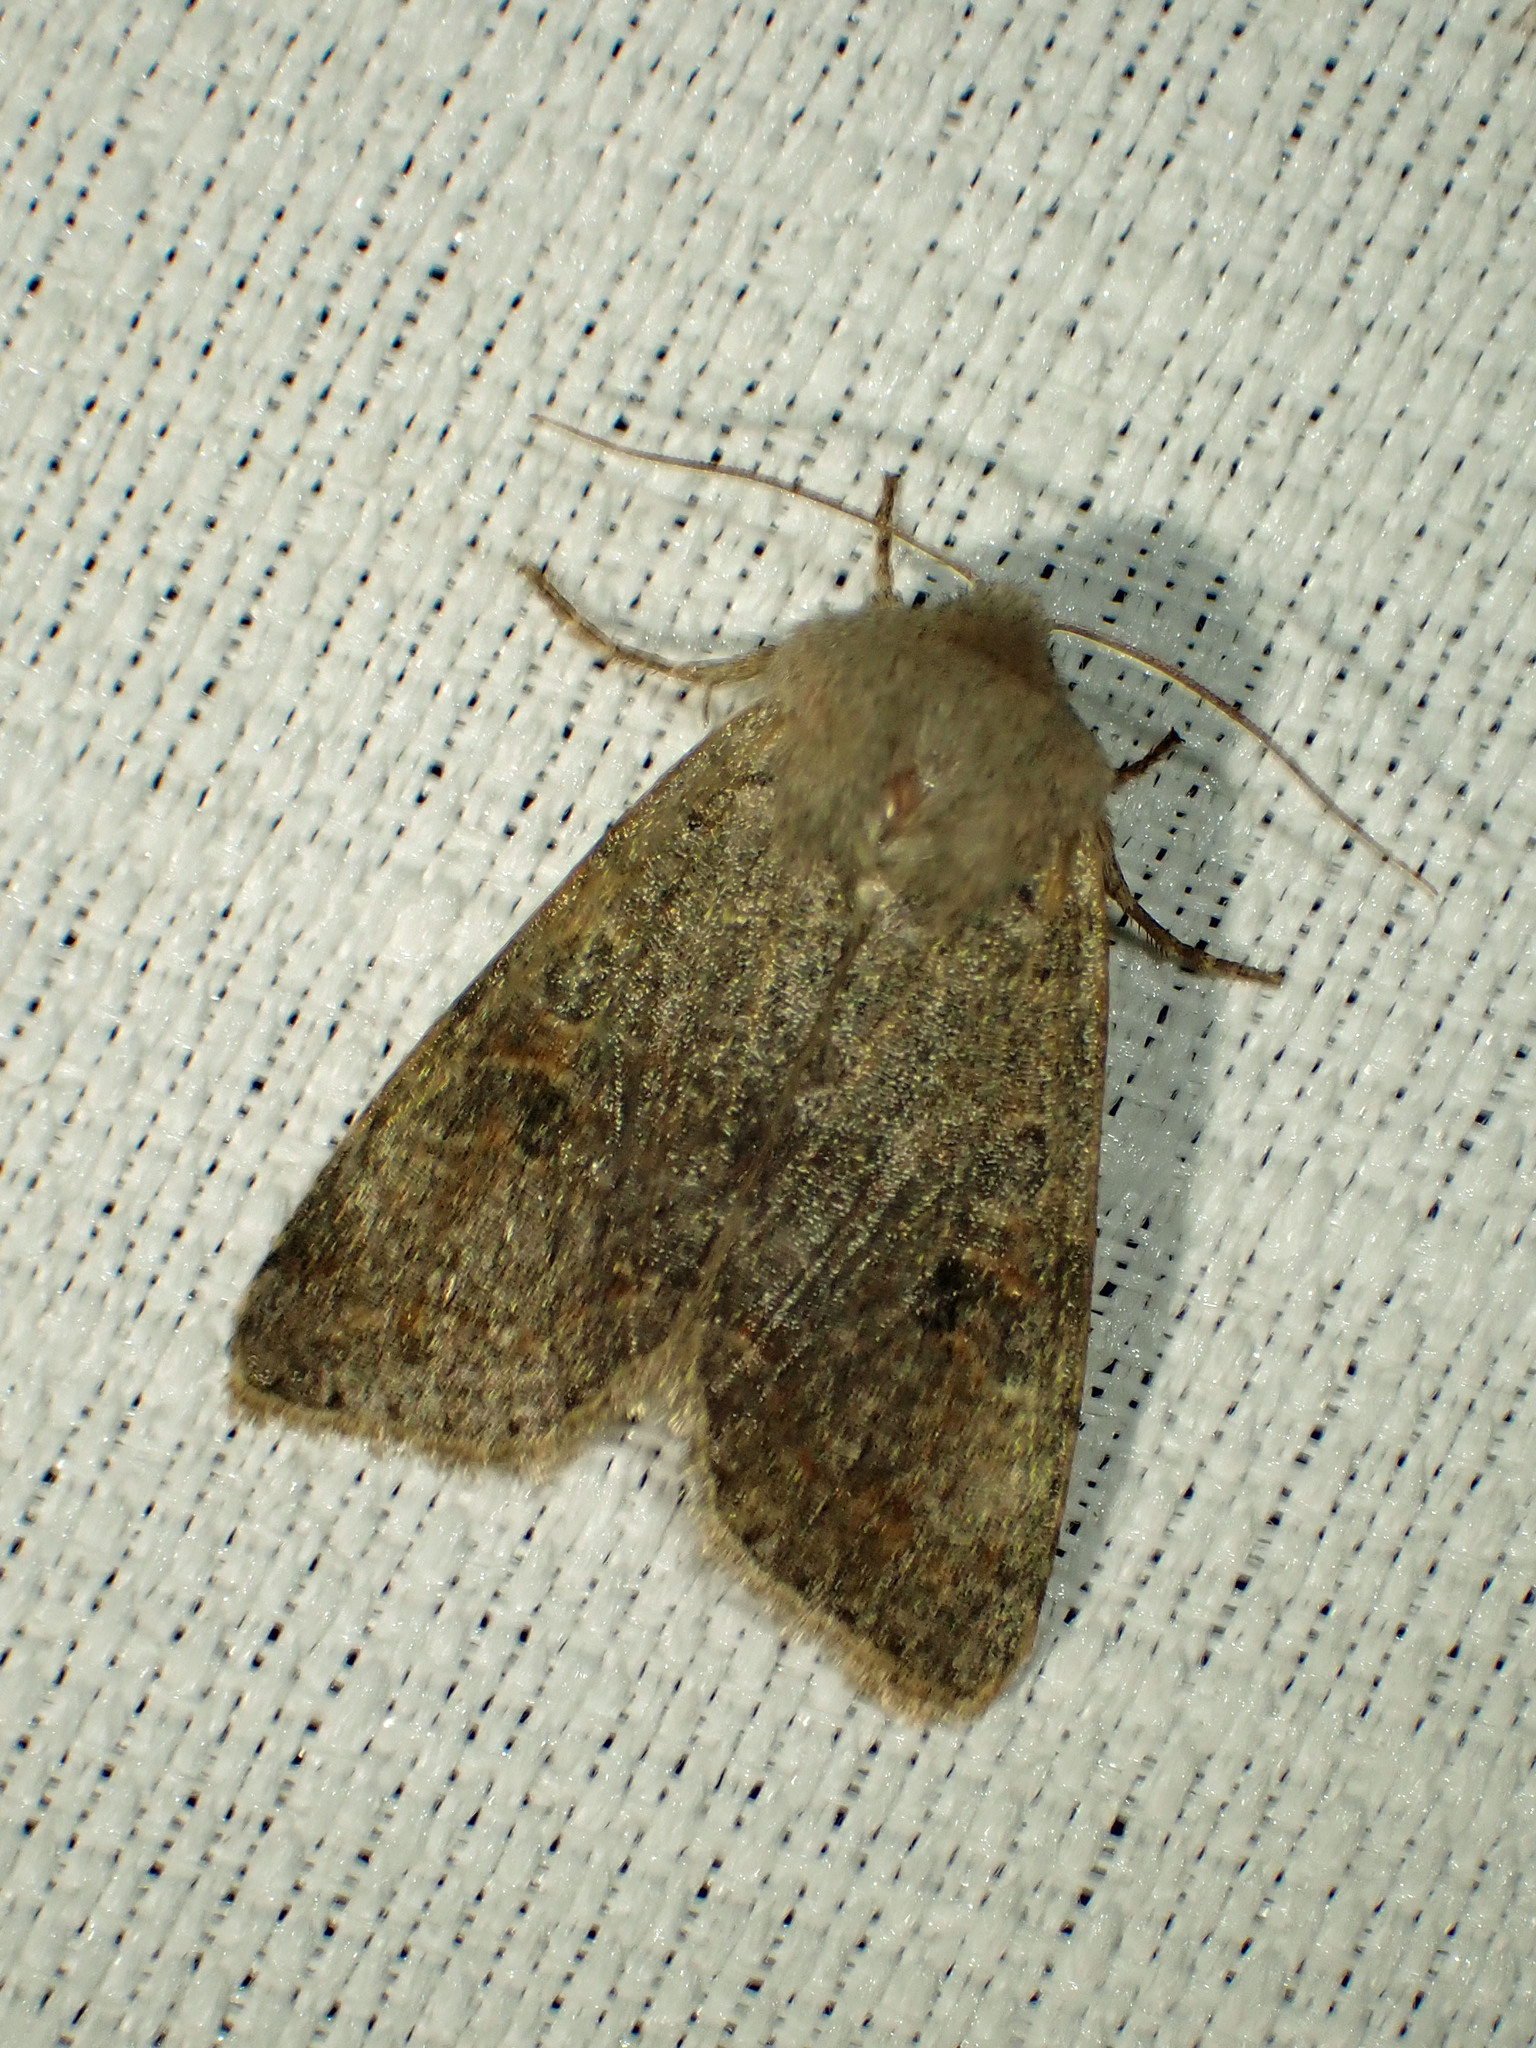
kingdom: Animalia
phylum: Arthropoda
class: Insecta
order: Lepidoptera
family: Noctuidae
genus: Orthosia
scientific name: Orthosia hibisci
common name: Green fruitworm
